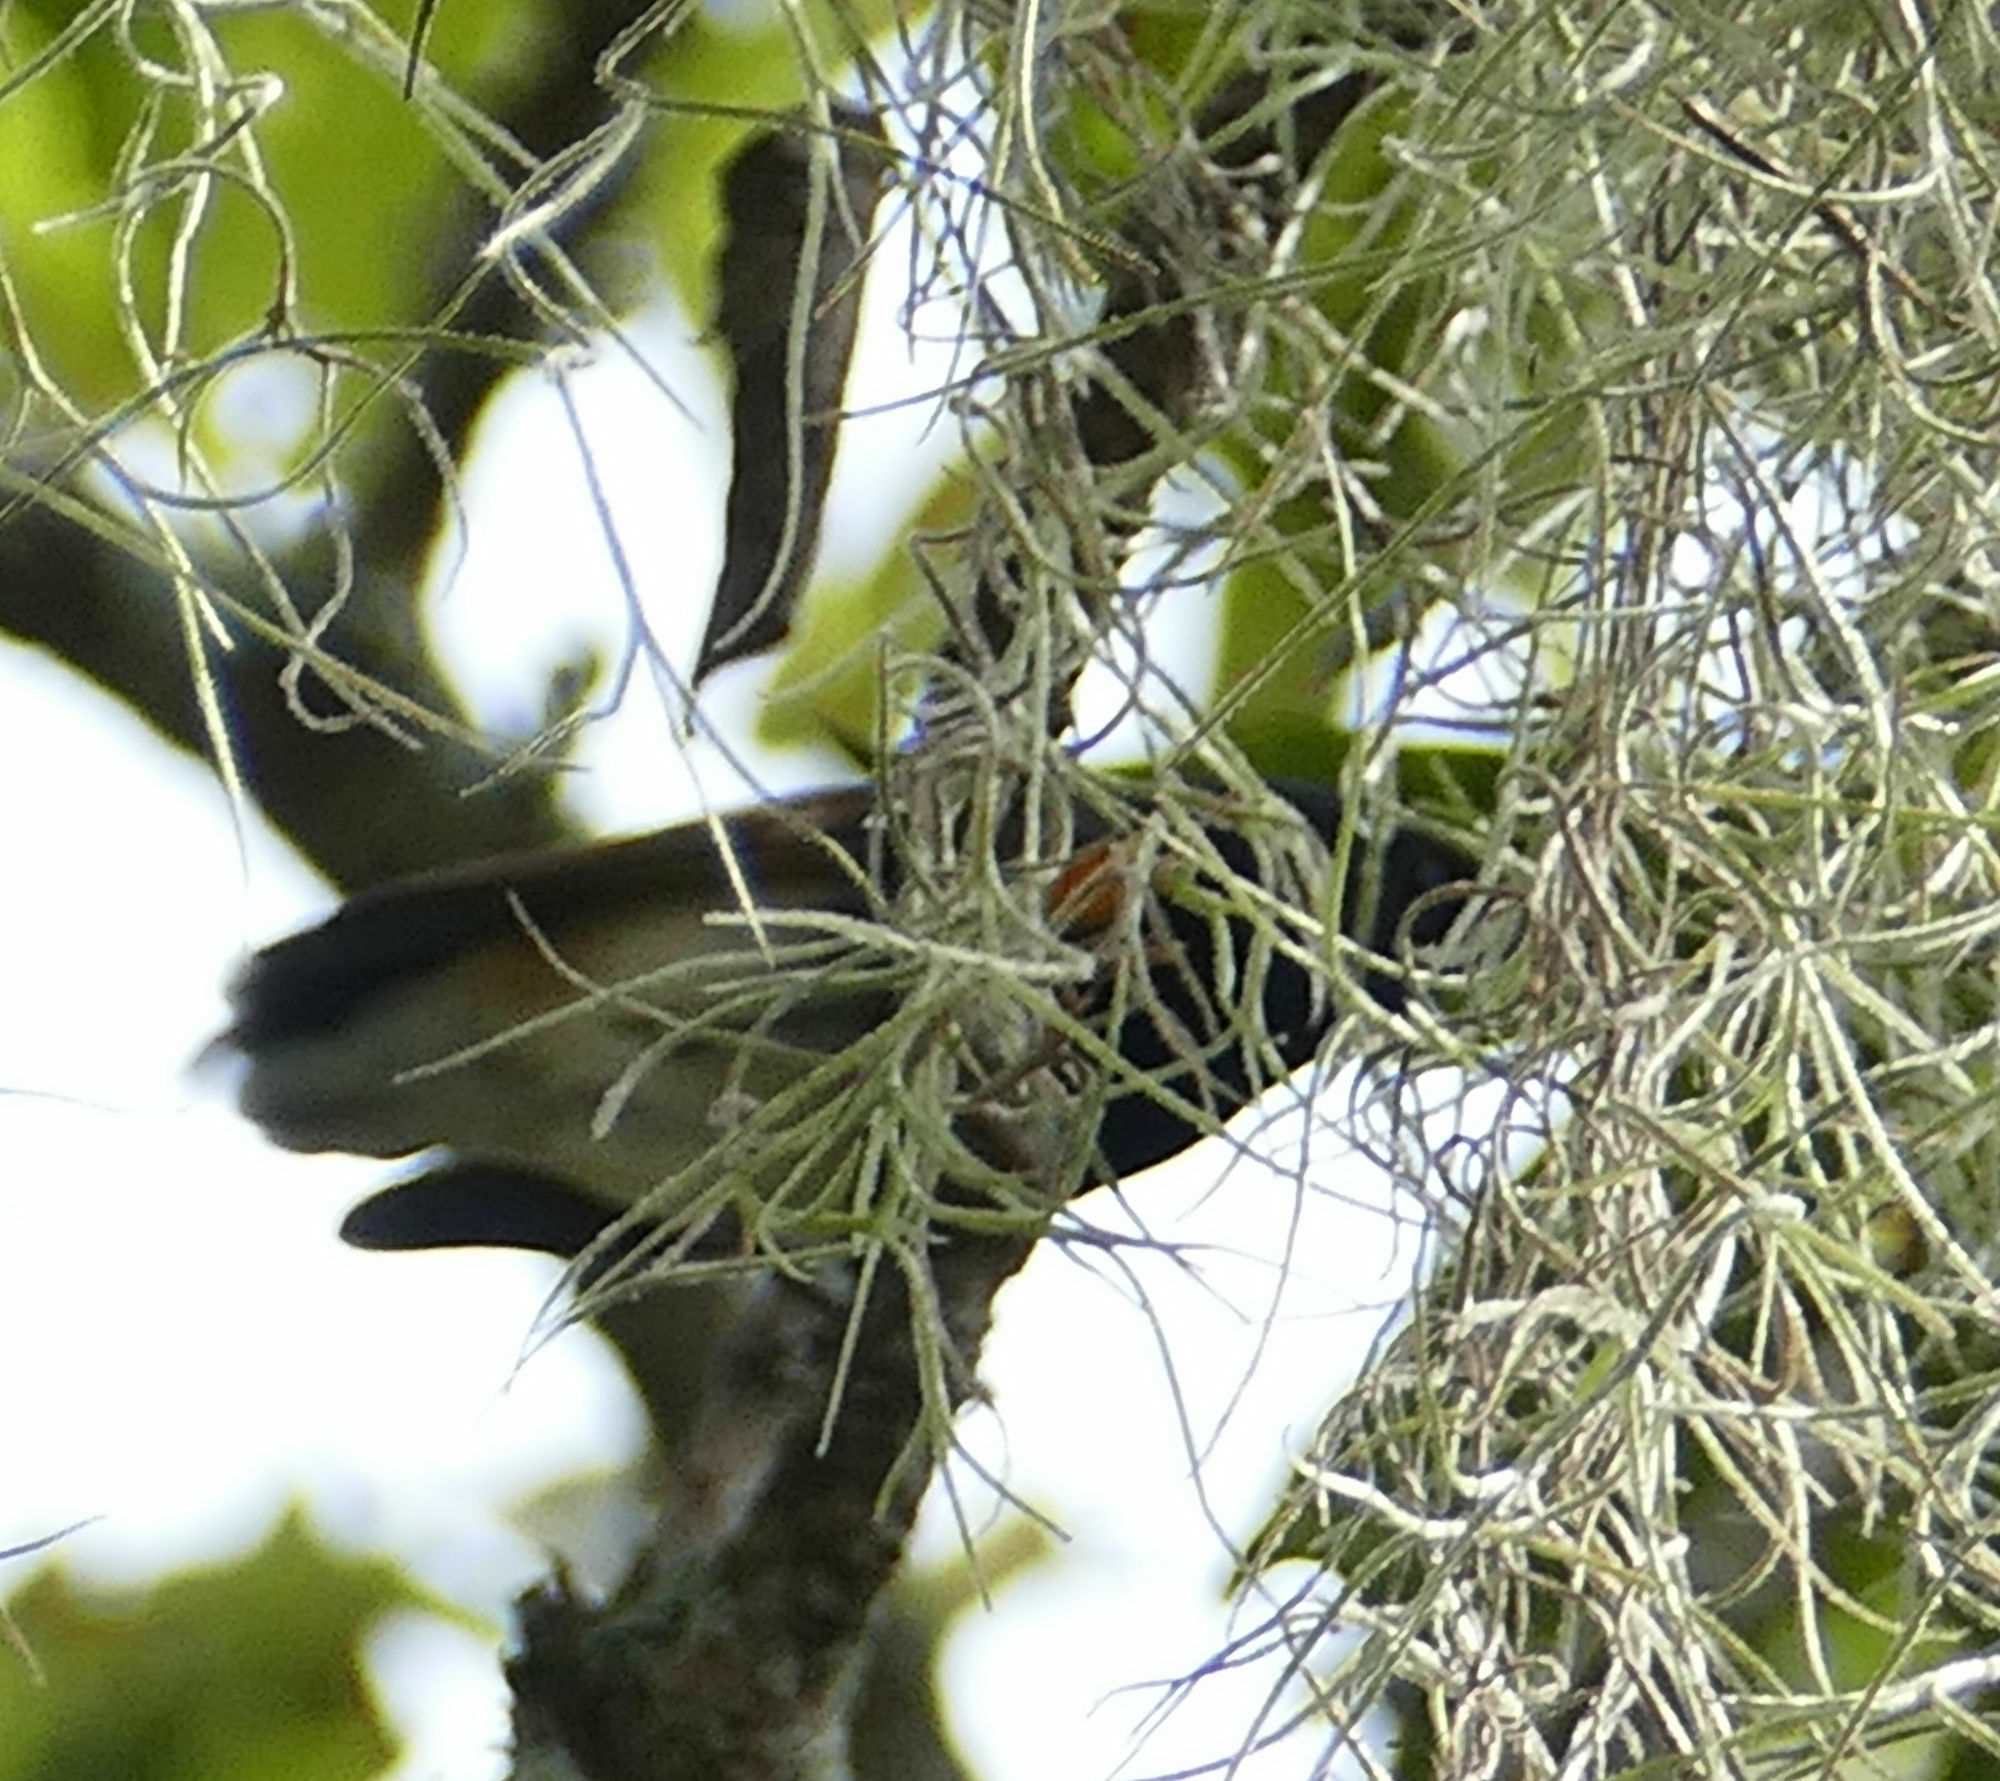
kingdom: Animalia
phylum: Chordata
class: Aves
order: Passeriformes
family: Parulidae
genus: Setophaga
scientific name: Setophaga ruticilla
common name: American redstart
